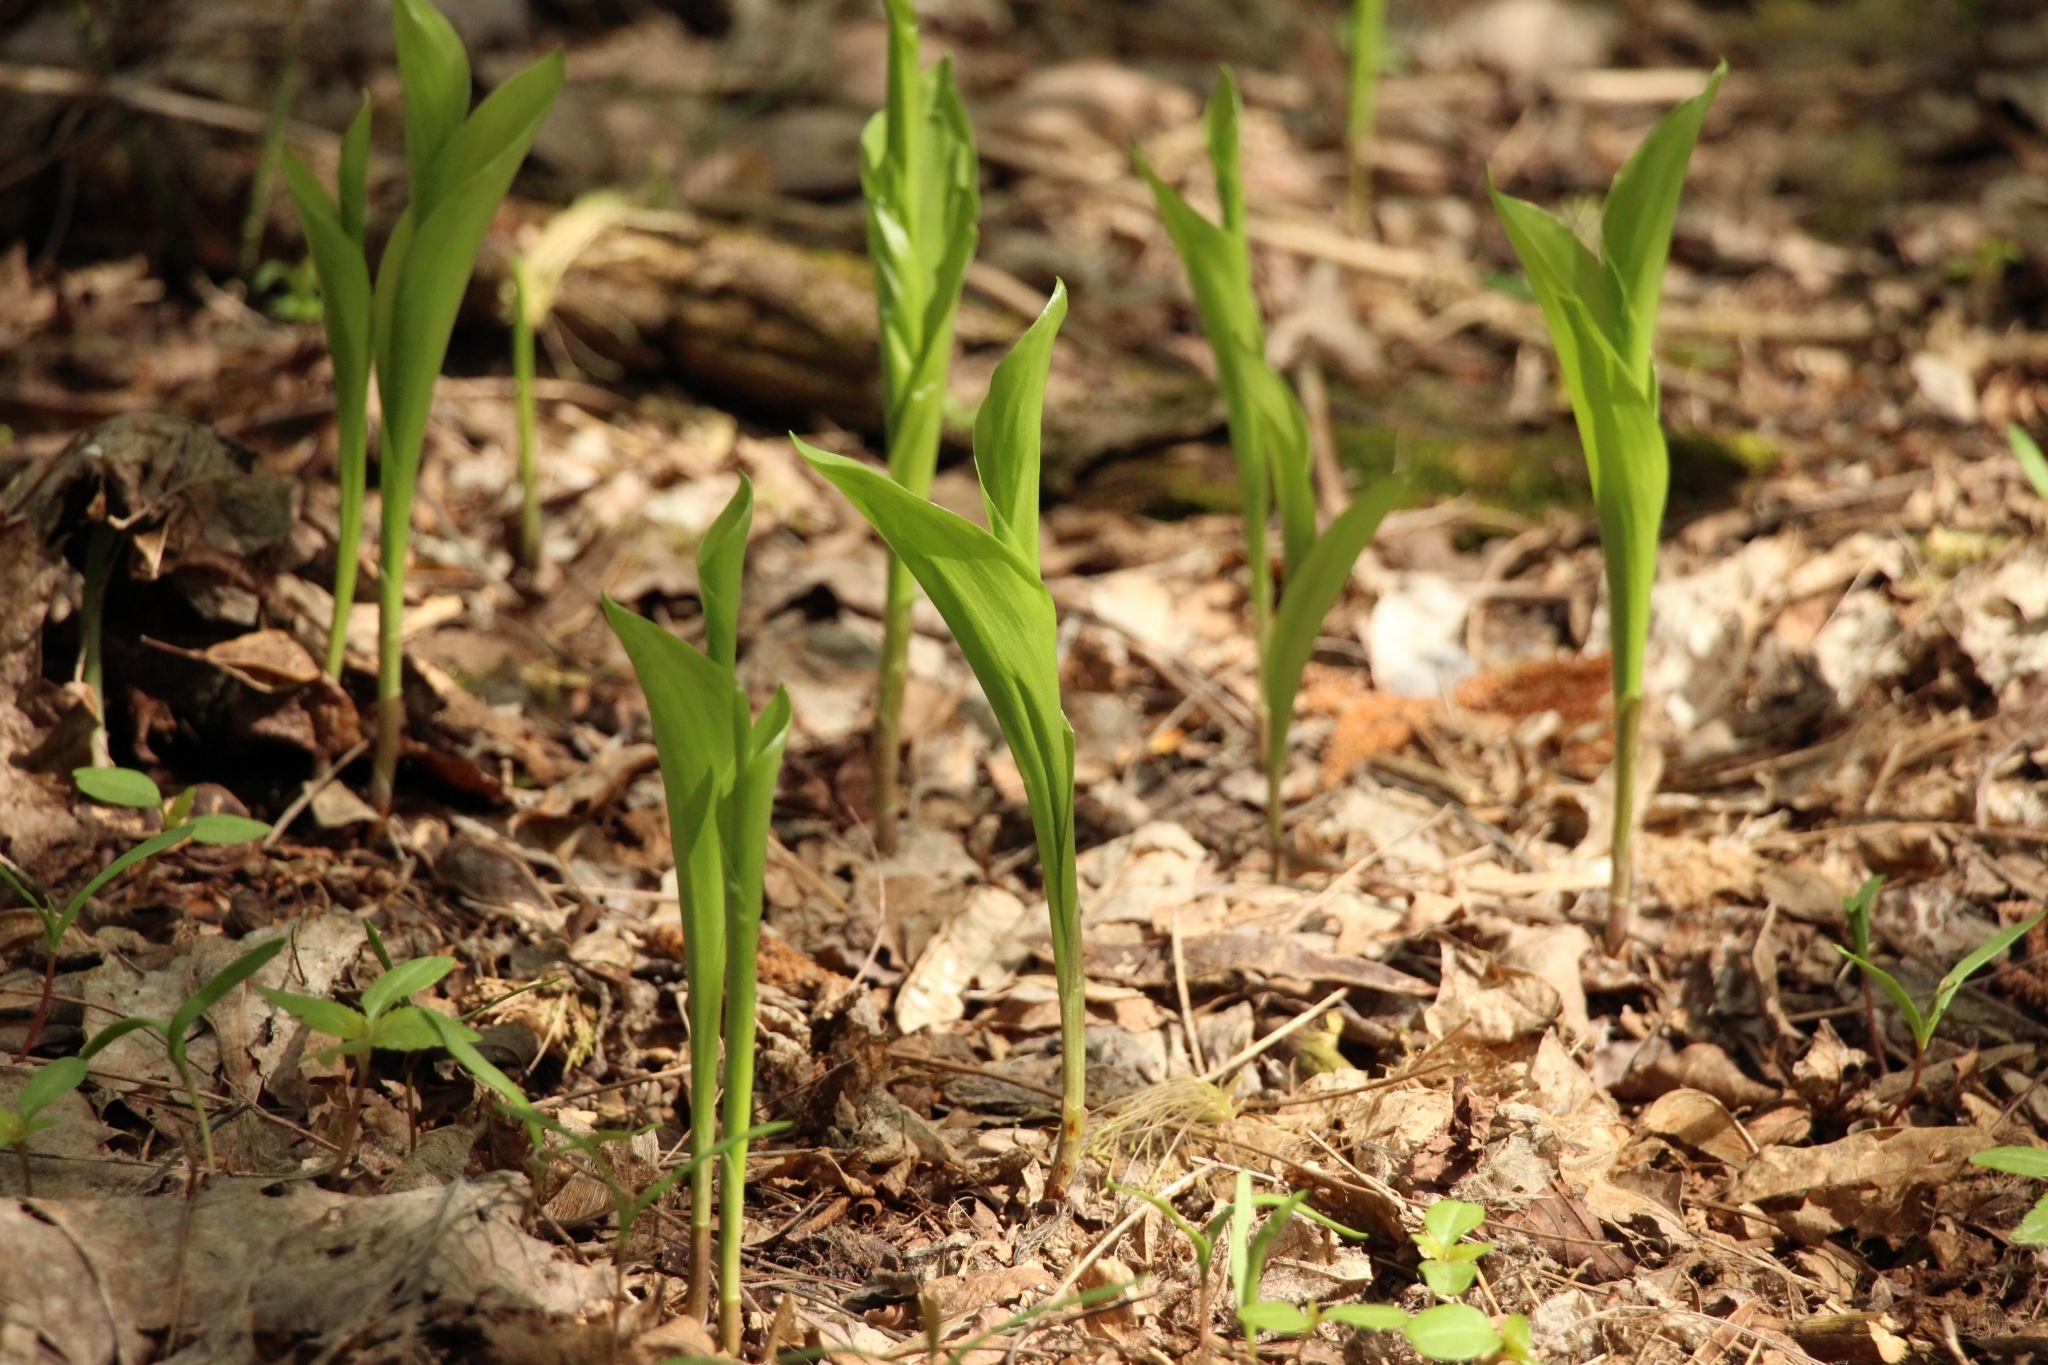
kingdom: Plantae
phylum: Tracheophyta
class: Liliopsida
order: Asparagales
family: Asparagaceae
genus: Convallaria
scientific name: Convallaria majalis
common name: Lily-of-the-valley
